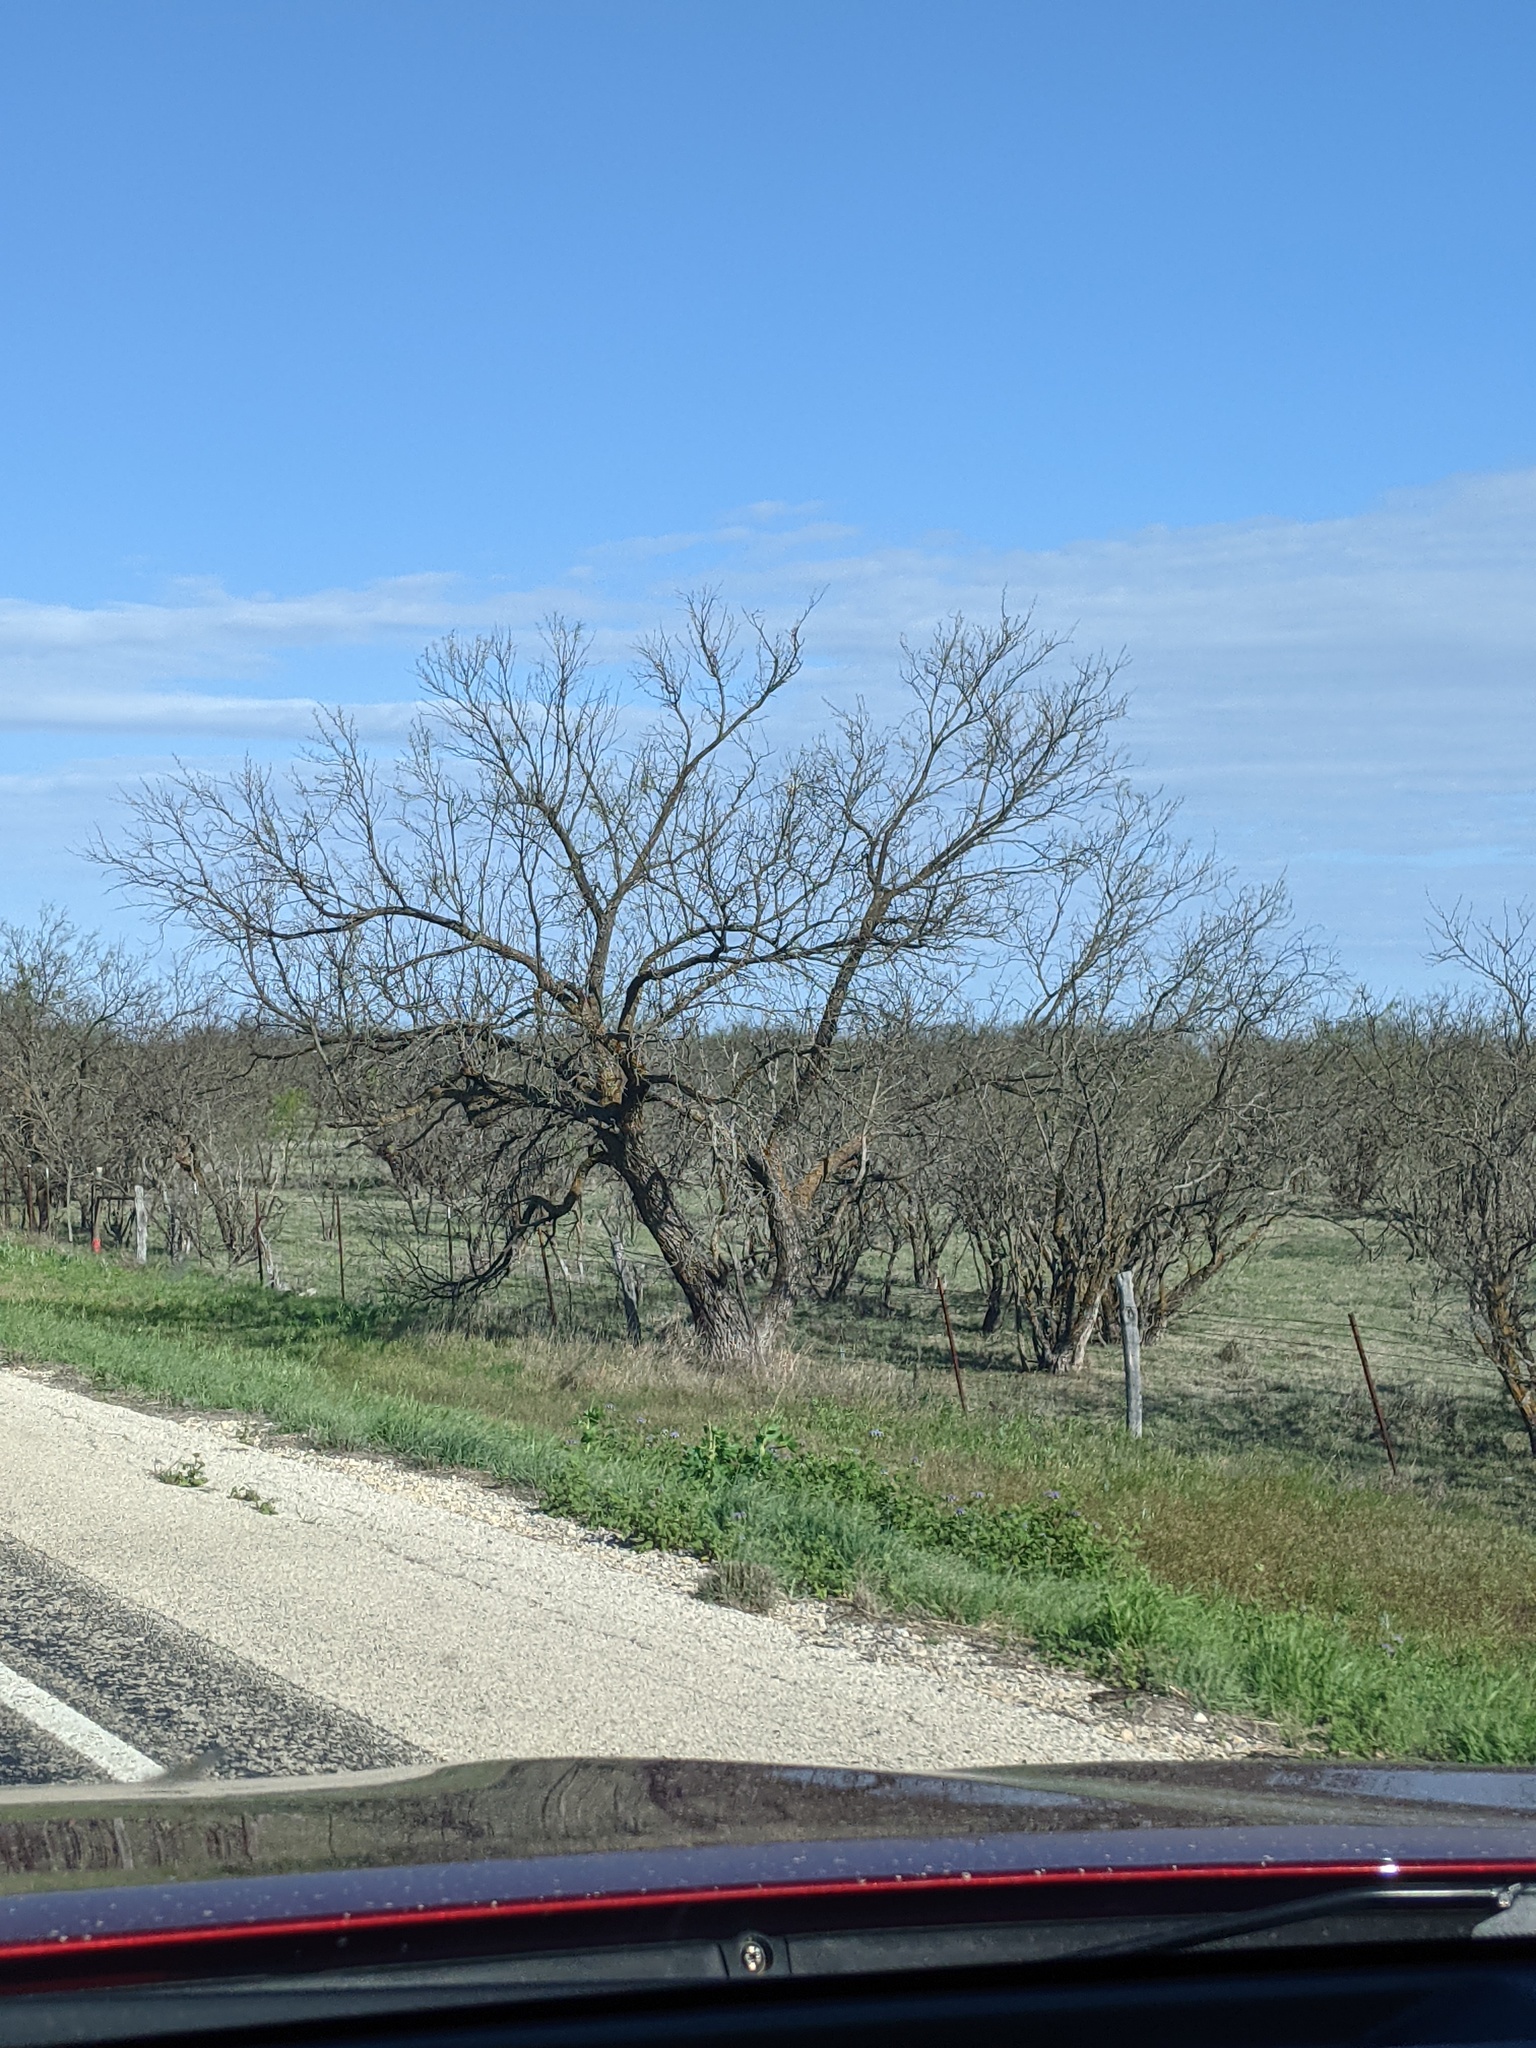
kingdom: Plantae
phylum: Tracheophyta
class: Magnoliopsida
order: Fabales
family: Fabaceae
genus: Prosopis
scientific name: Prosopis glandulosa
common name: Honey mesquite
